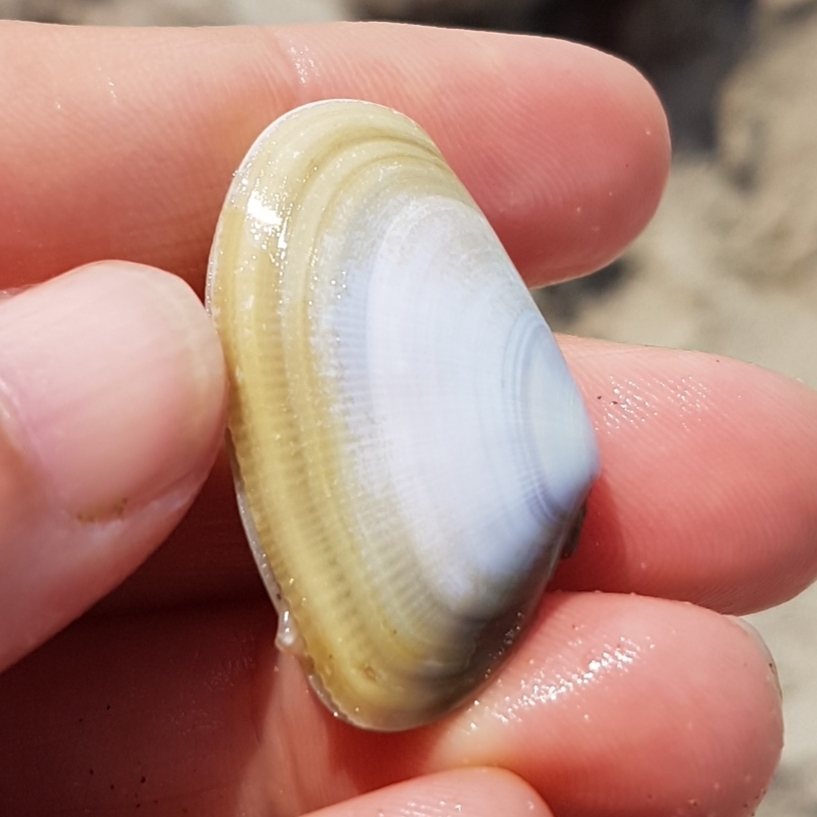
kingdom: Animalia
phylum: Mollusca
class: Bivalvia
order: Cardiida
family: Donacidae
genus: Donax
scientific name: Donax trunculus
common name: Truncate donax
